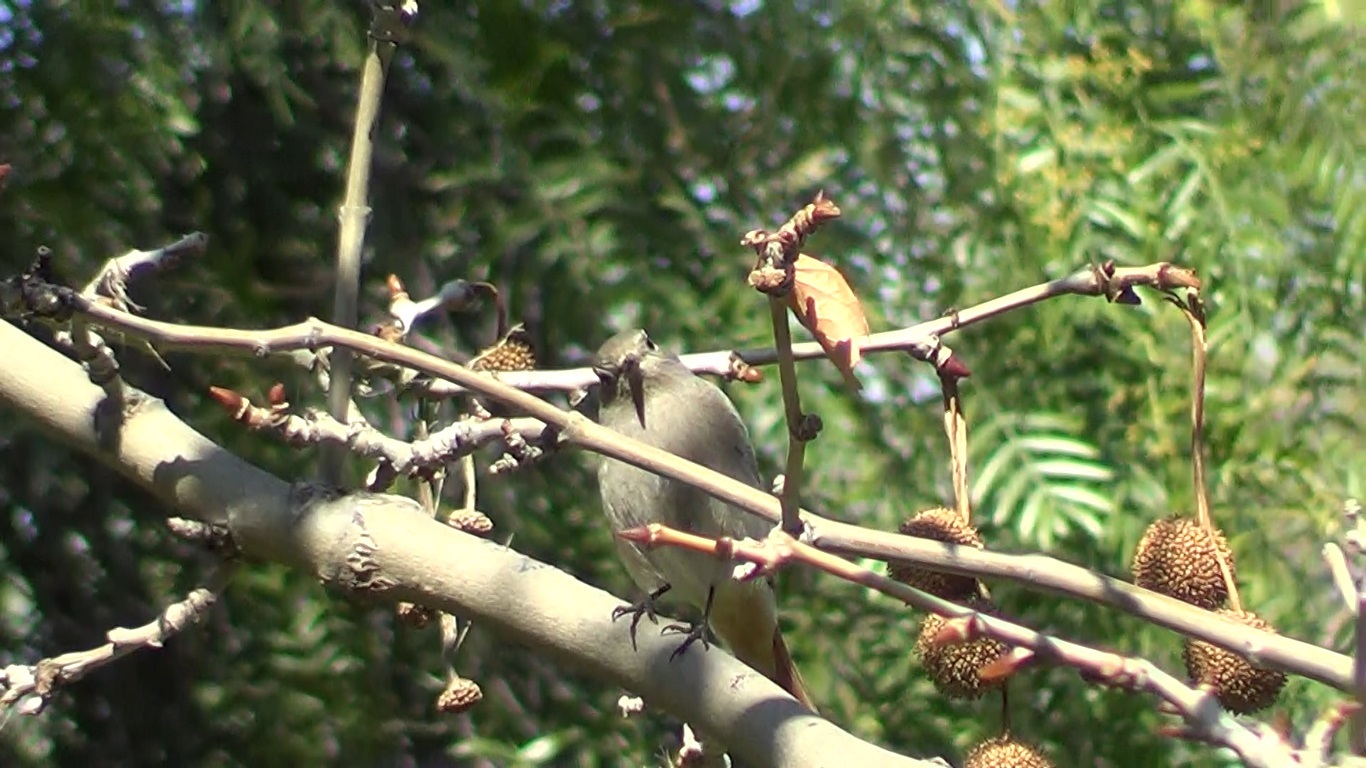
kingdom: Animalia
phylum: Chordata
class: Aves
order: Passeriformes
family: Muscicapidae
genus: Phoenicurus
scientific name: Phoenicurus ochruros
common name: Black redstart
